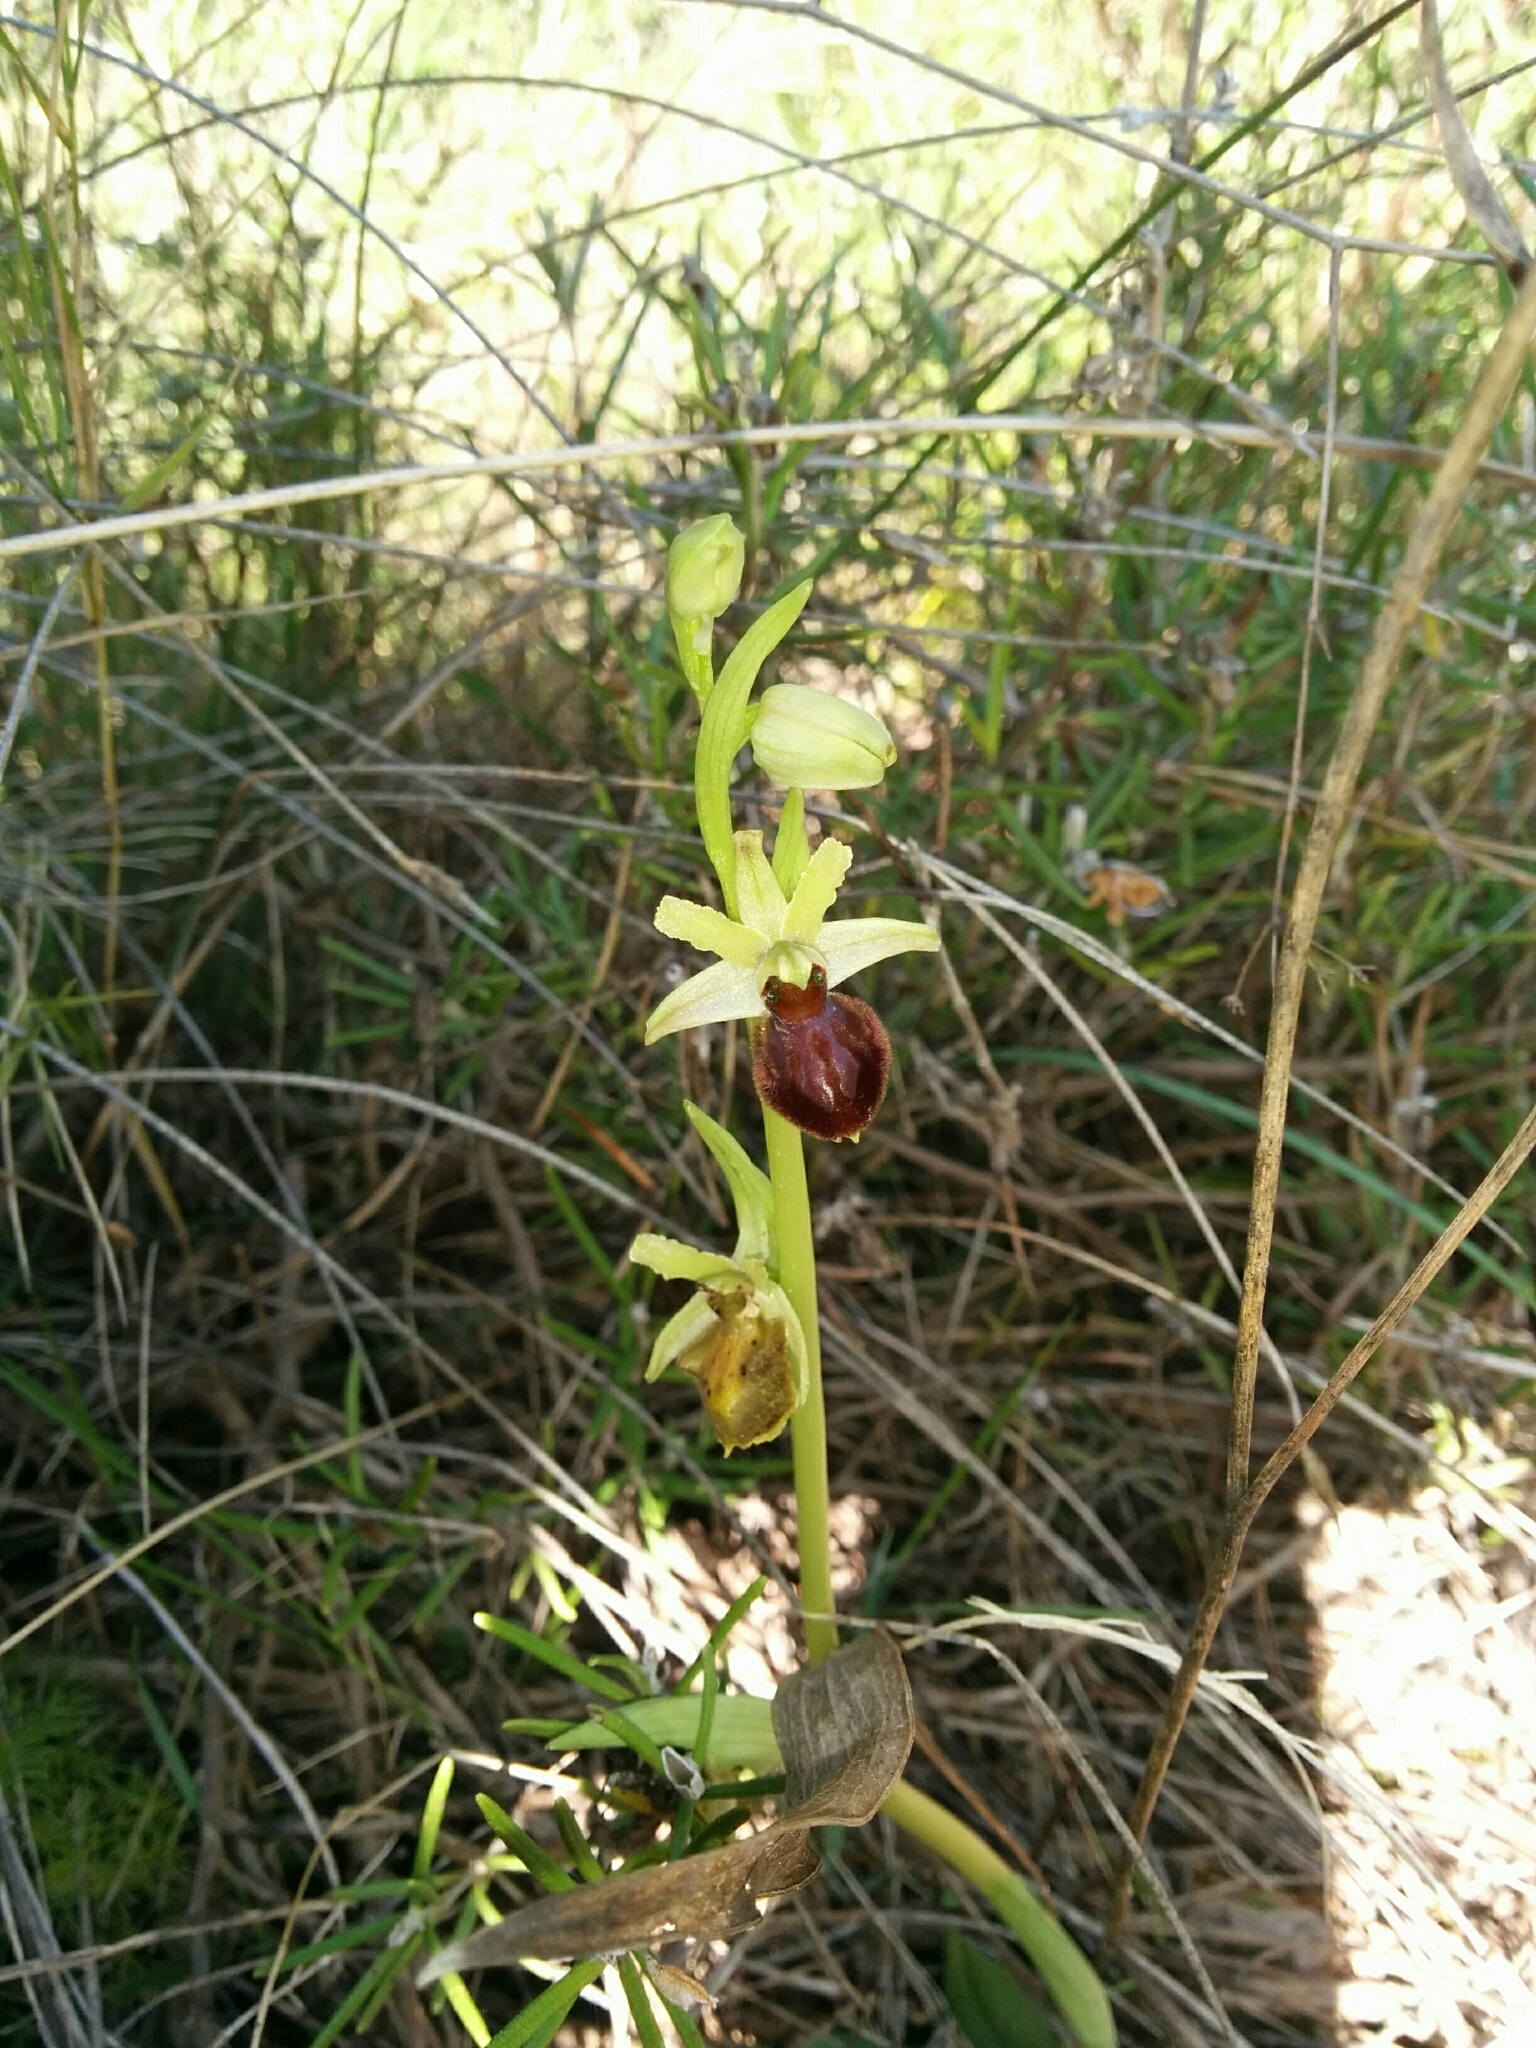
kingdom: Plantae
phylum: Tracheophyta
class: Liliopsida
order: Asparagales
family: Orchidaceae
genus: Ophrys
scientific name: Ophrys arachnitiformis
